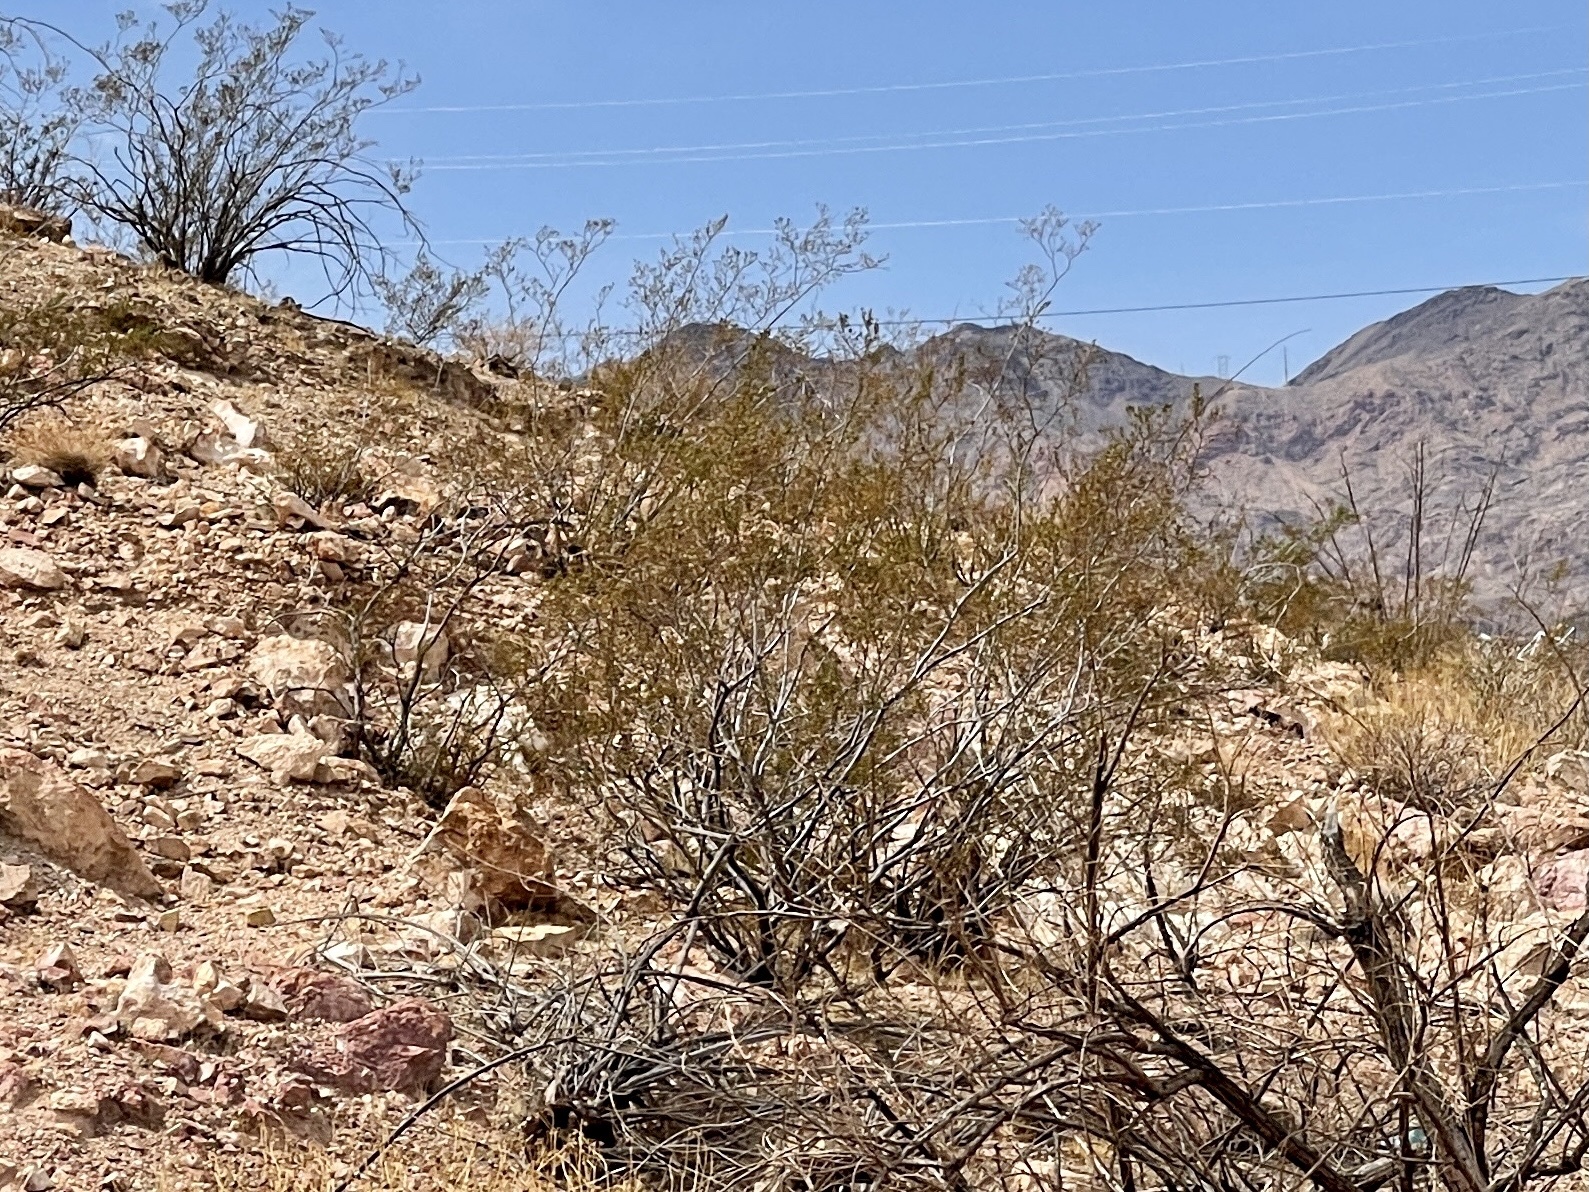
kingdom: Plantae
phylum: Tracheophyta
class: Magnoliopsida
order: Zygophyllales
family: Zygophyllaceae
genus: Larrea
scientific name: Larrea tridentata
